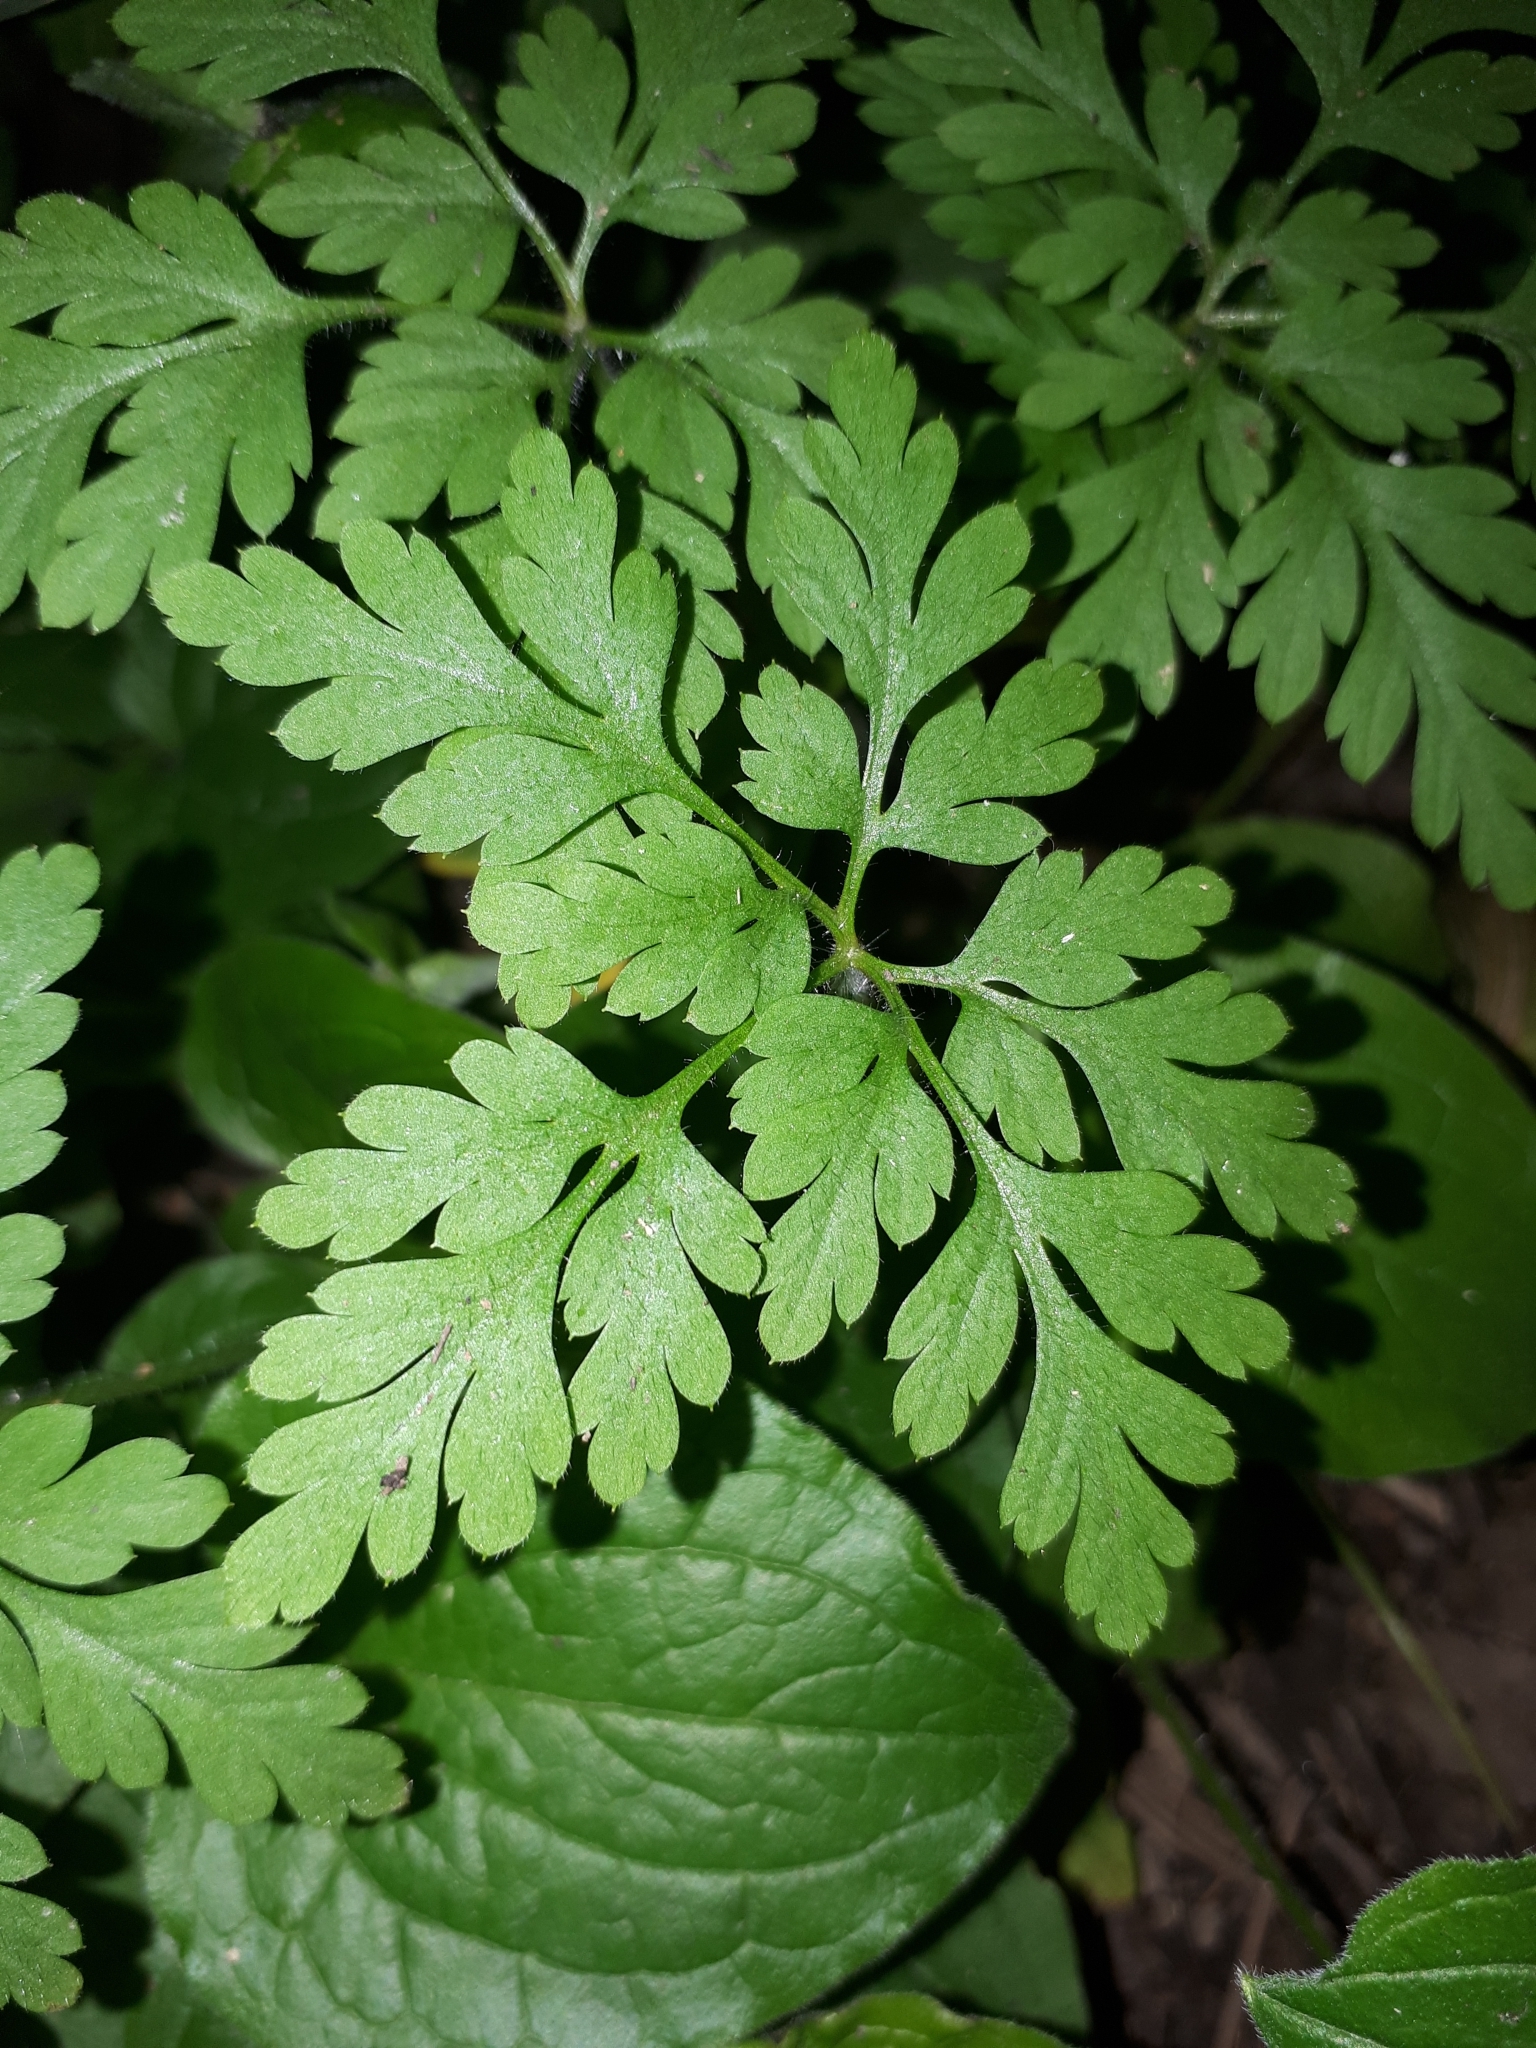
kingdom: Plantae
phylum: Tracheophyta
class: Magnoliopsida
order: Geraniales
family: Geraniaceae
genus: Geranium
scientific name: Geranium robertianum
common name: Herb-robert
